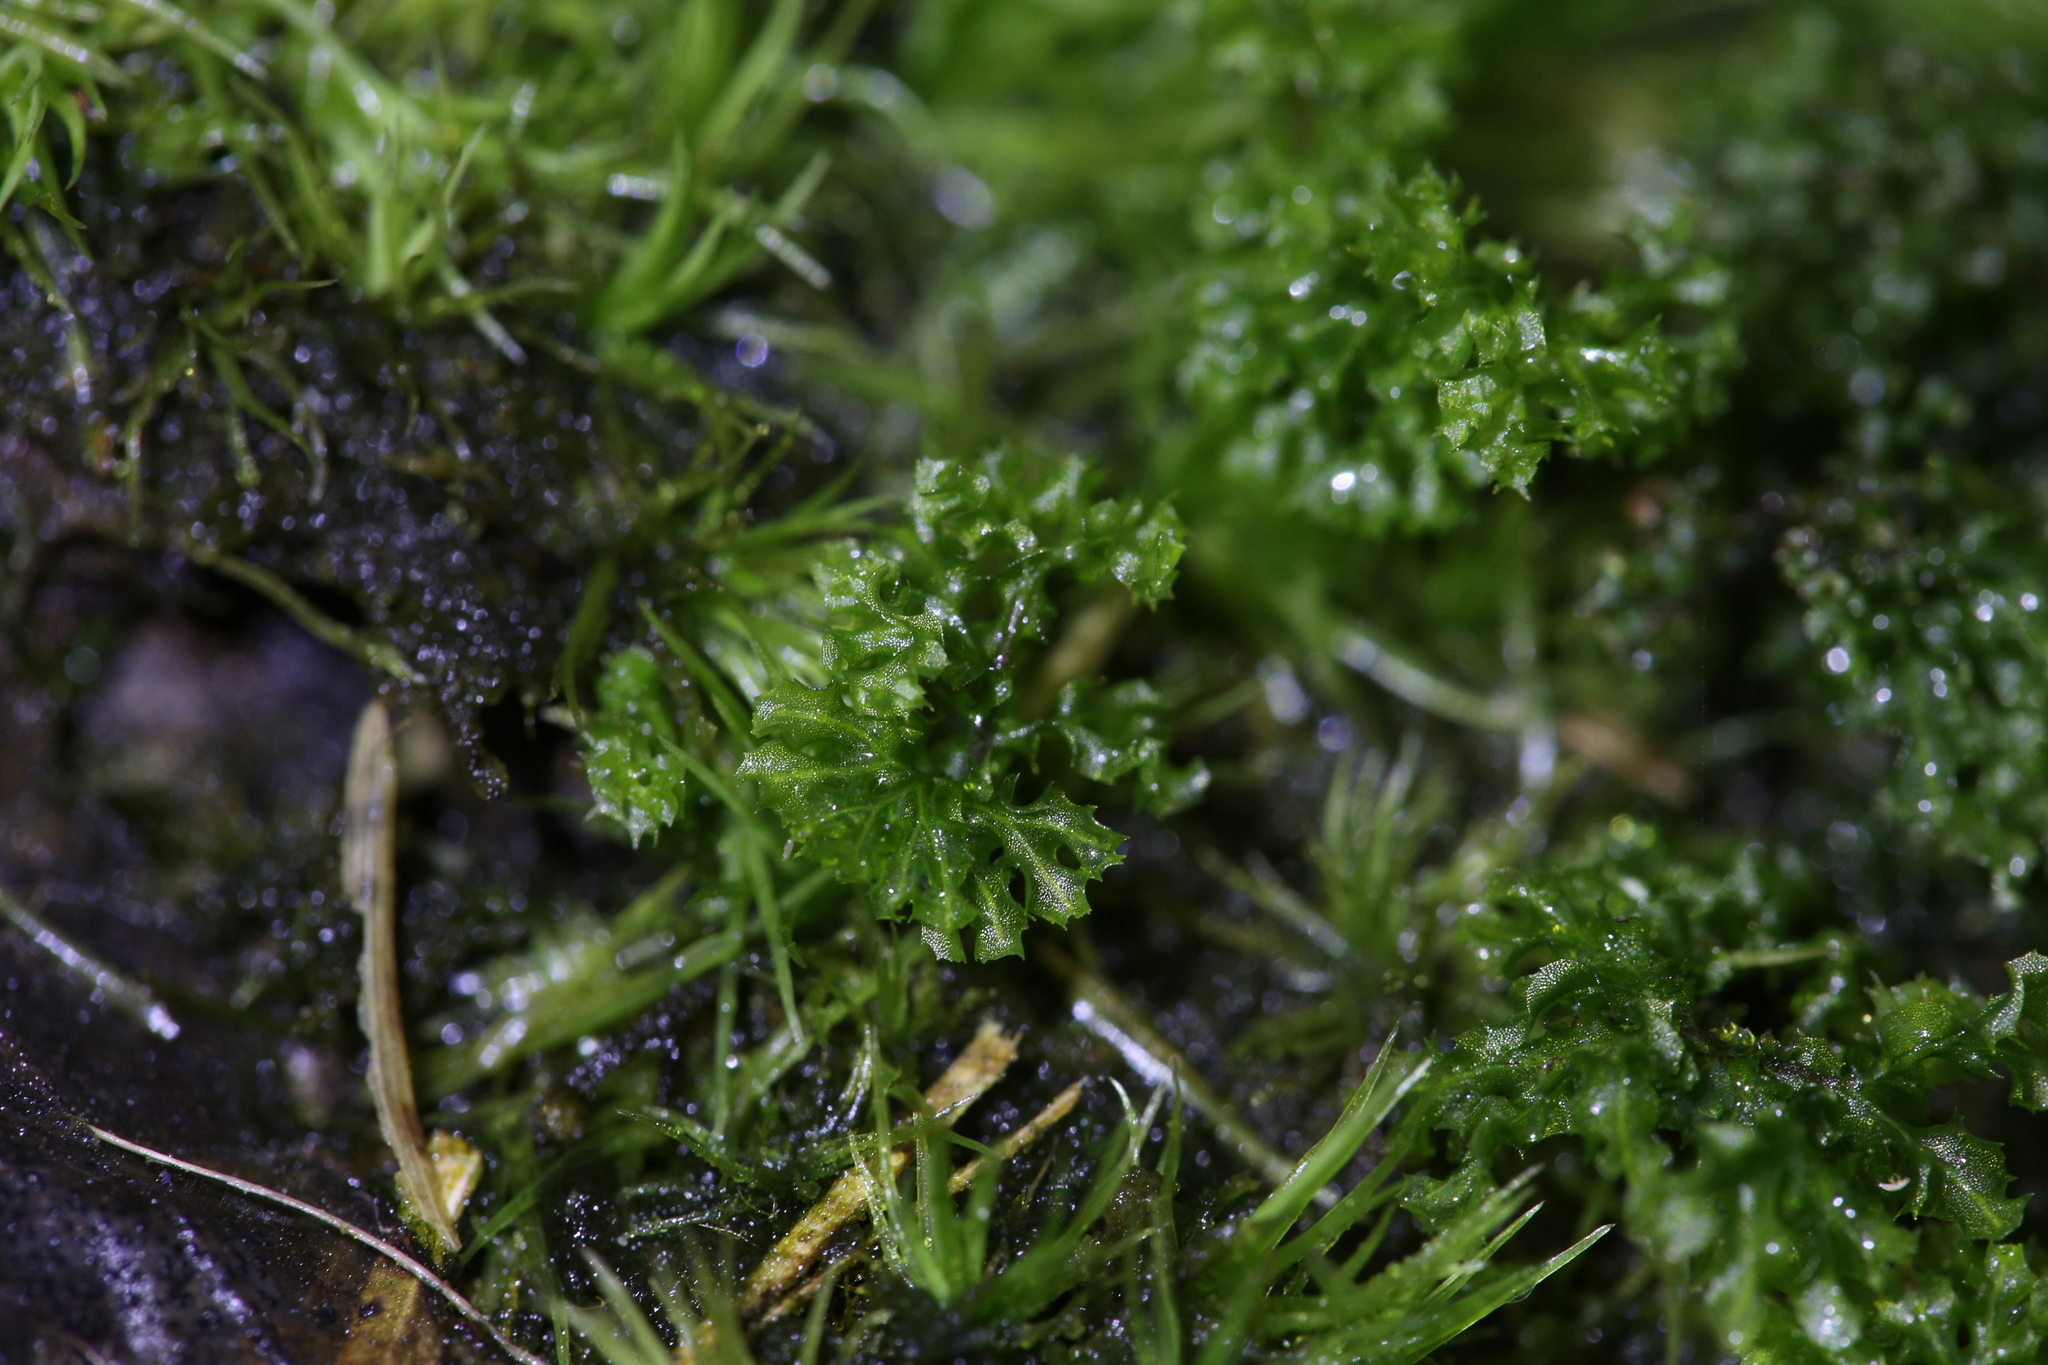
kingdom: Plantae
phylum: Tracheophyta
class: Polypodiopsida
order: Hymenophyllales
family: Hymenophyllaceae
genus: Hymenophyllum
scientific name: Hymenophyllum denticulatum
